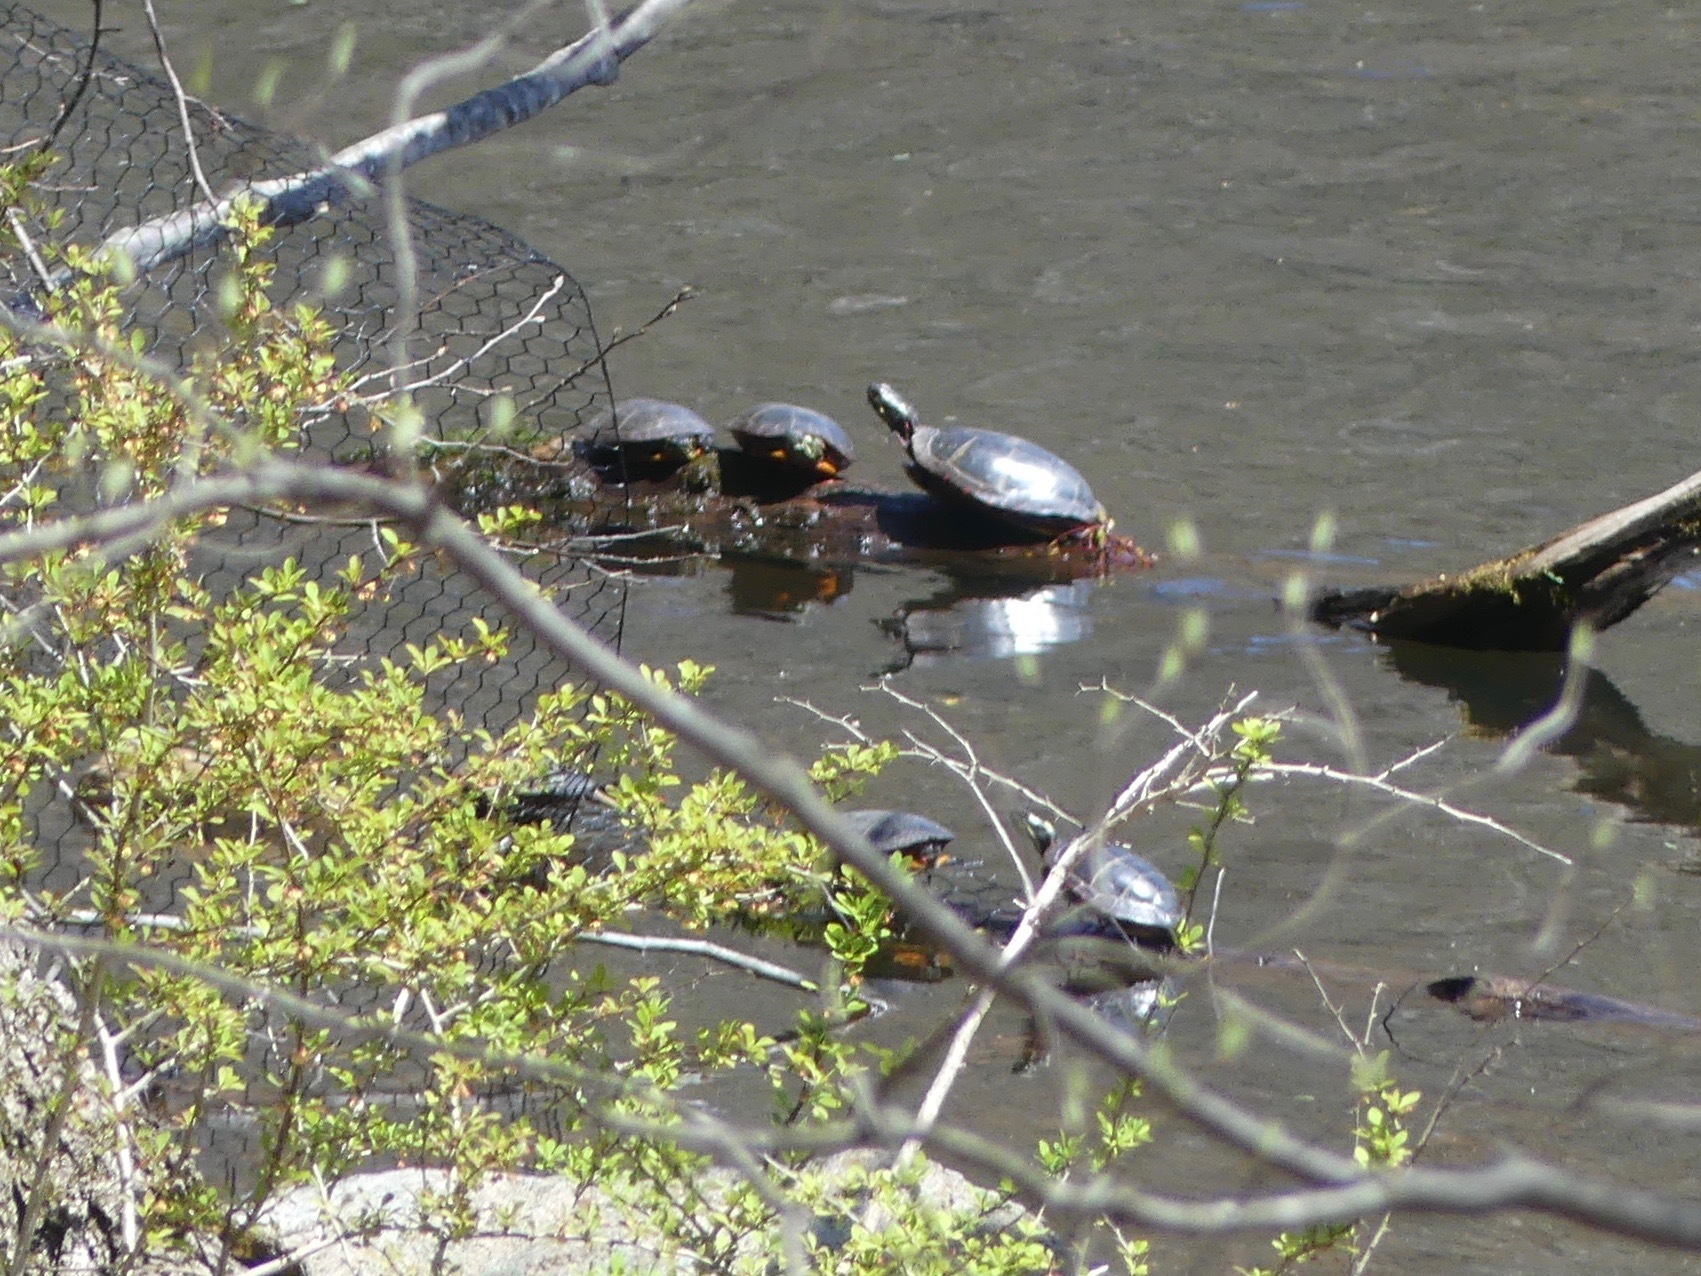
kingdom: Animalia
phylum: Chordata
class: Testudines
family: Emydidae
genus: Chrysemys
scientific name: Chrysemys picta
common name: Painted turtle
